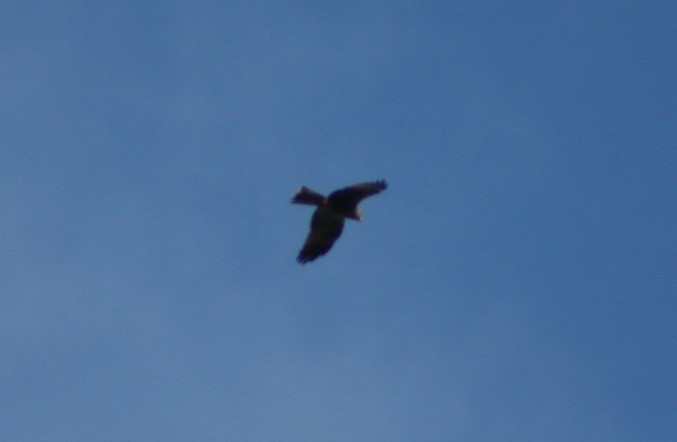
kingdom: Animalia
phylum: Chordata
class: Aves
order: Accipitriformes
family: Accipitridae
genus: Milvus
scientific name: Milvus migrans
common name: Black kite
